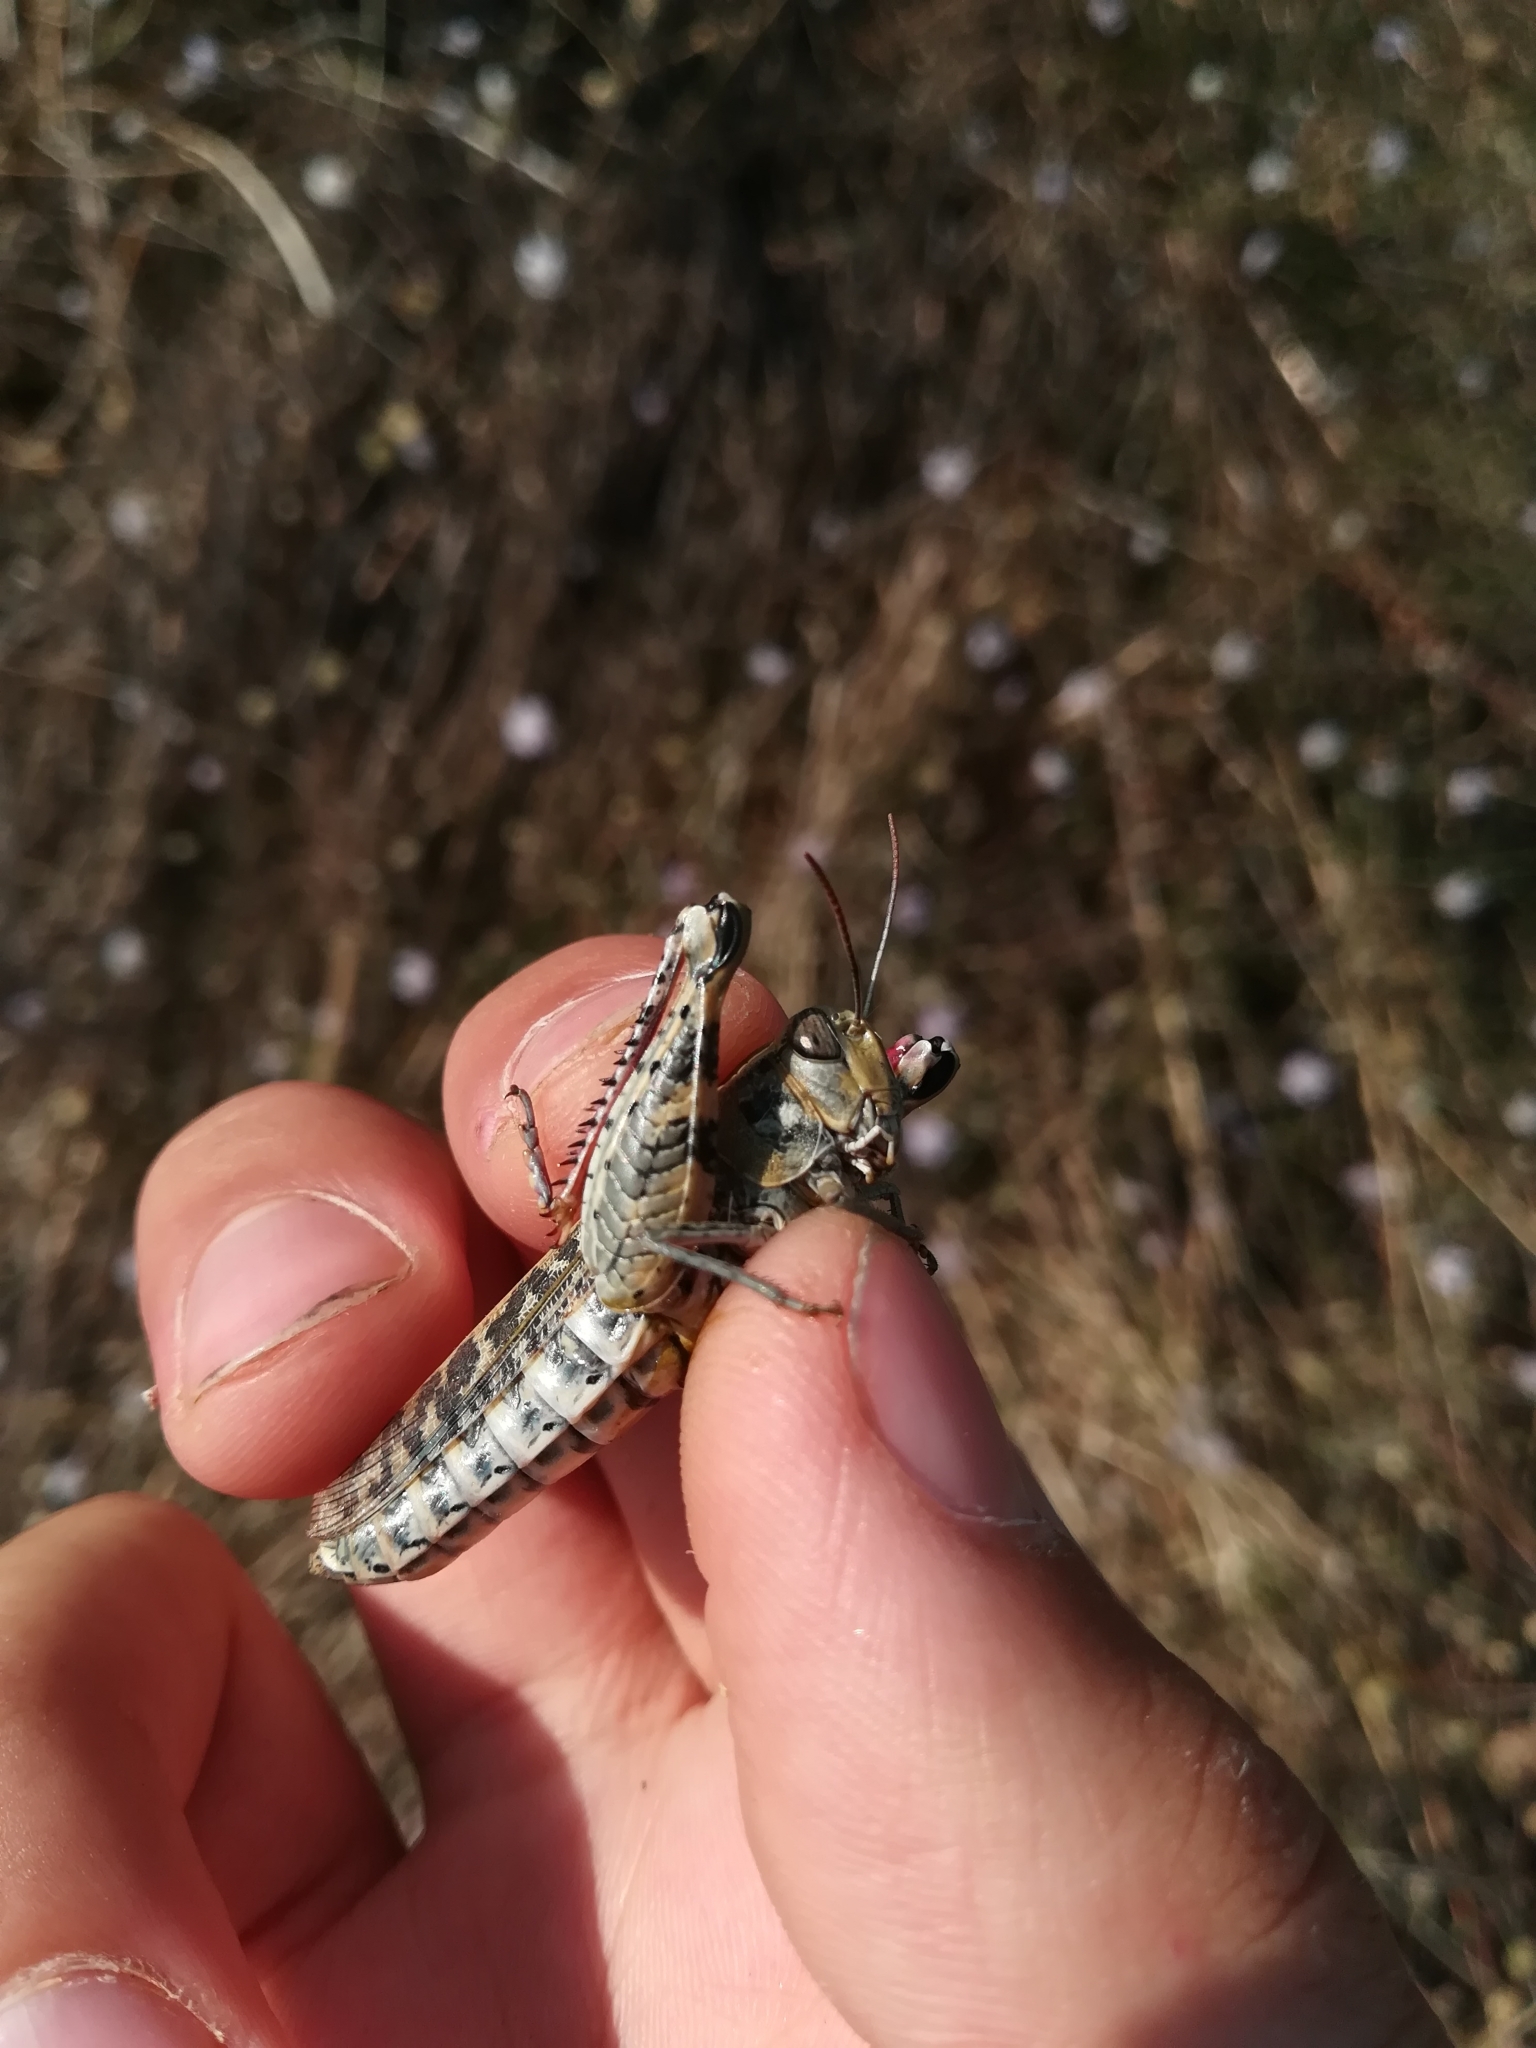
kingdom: Animalia
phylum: Arthropoda
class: Insecta
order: Orthoptera
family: Acrididae
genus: Calliptamus
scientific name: Calliptamus italicus
